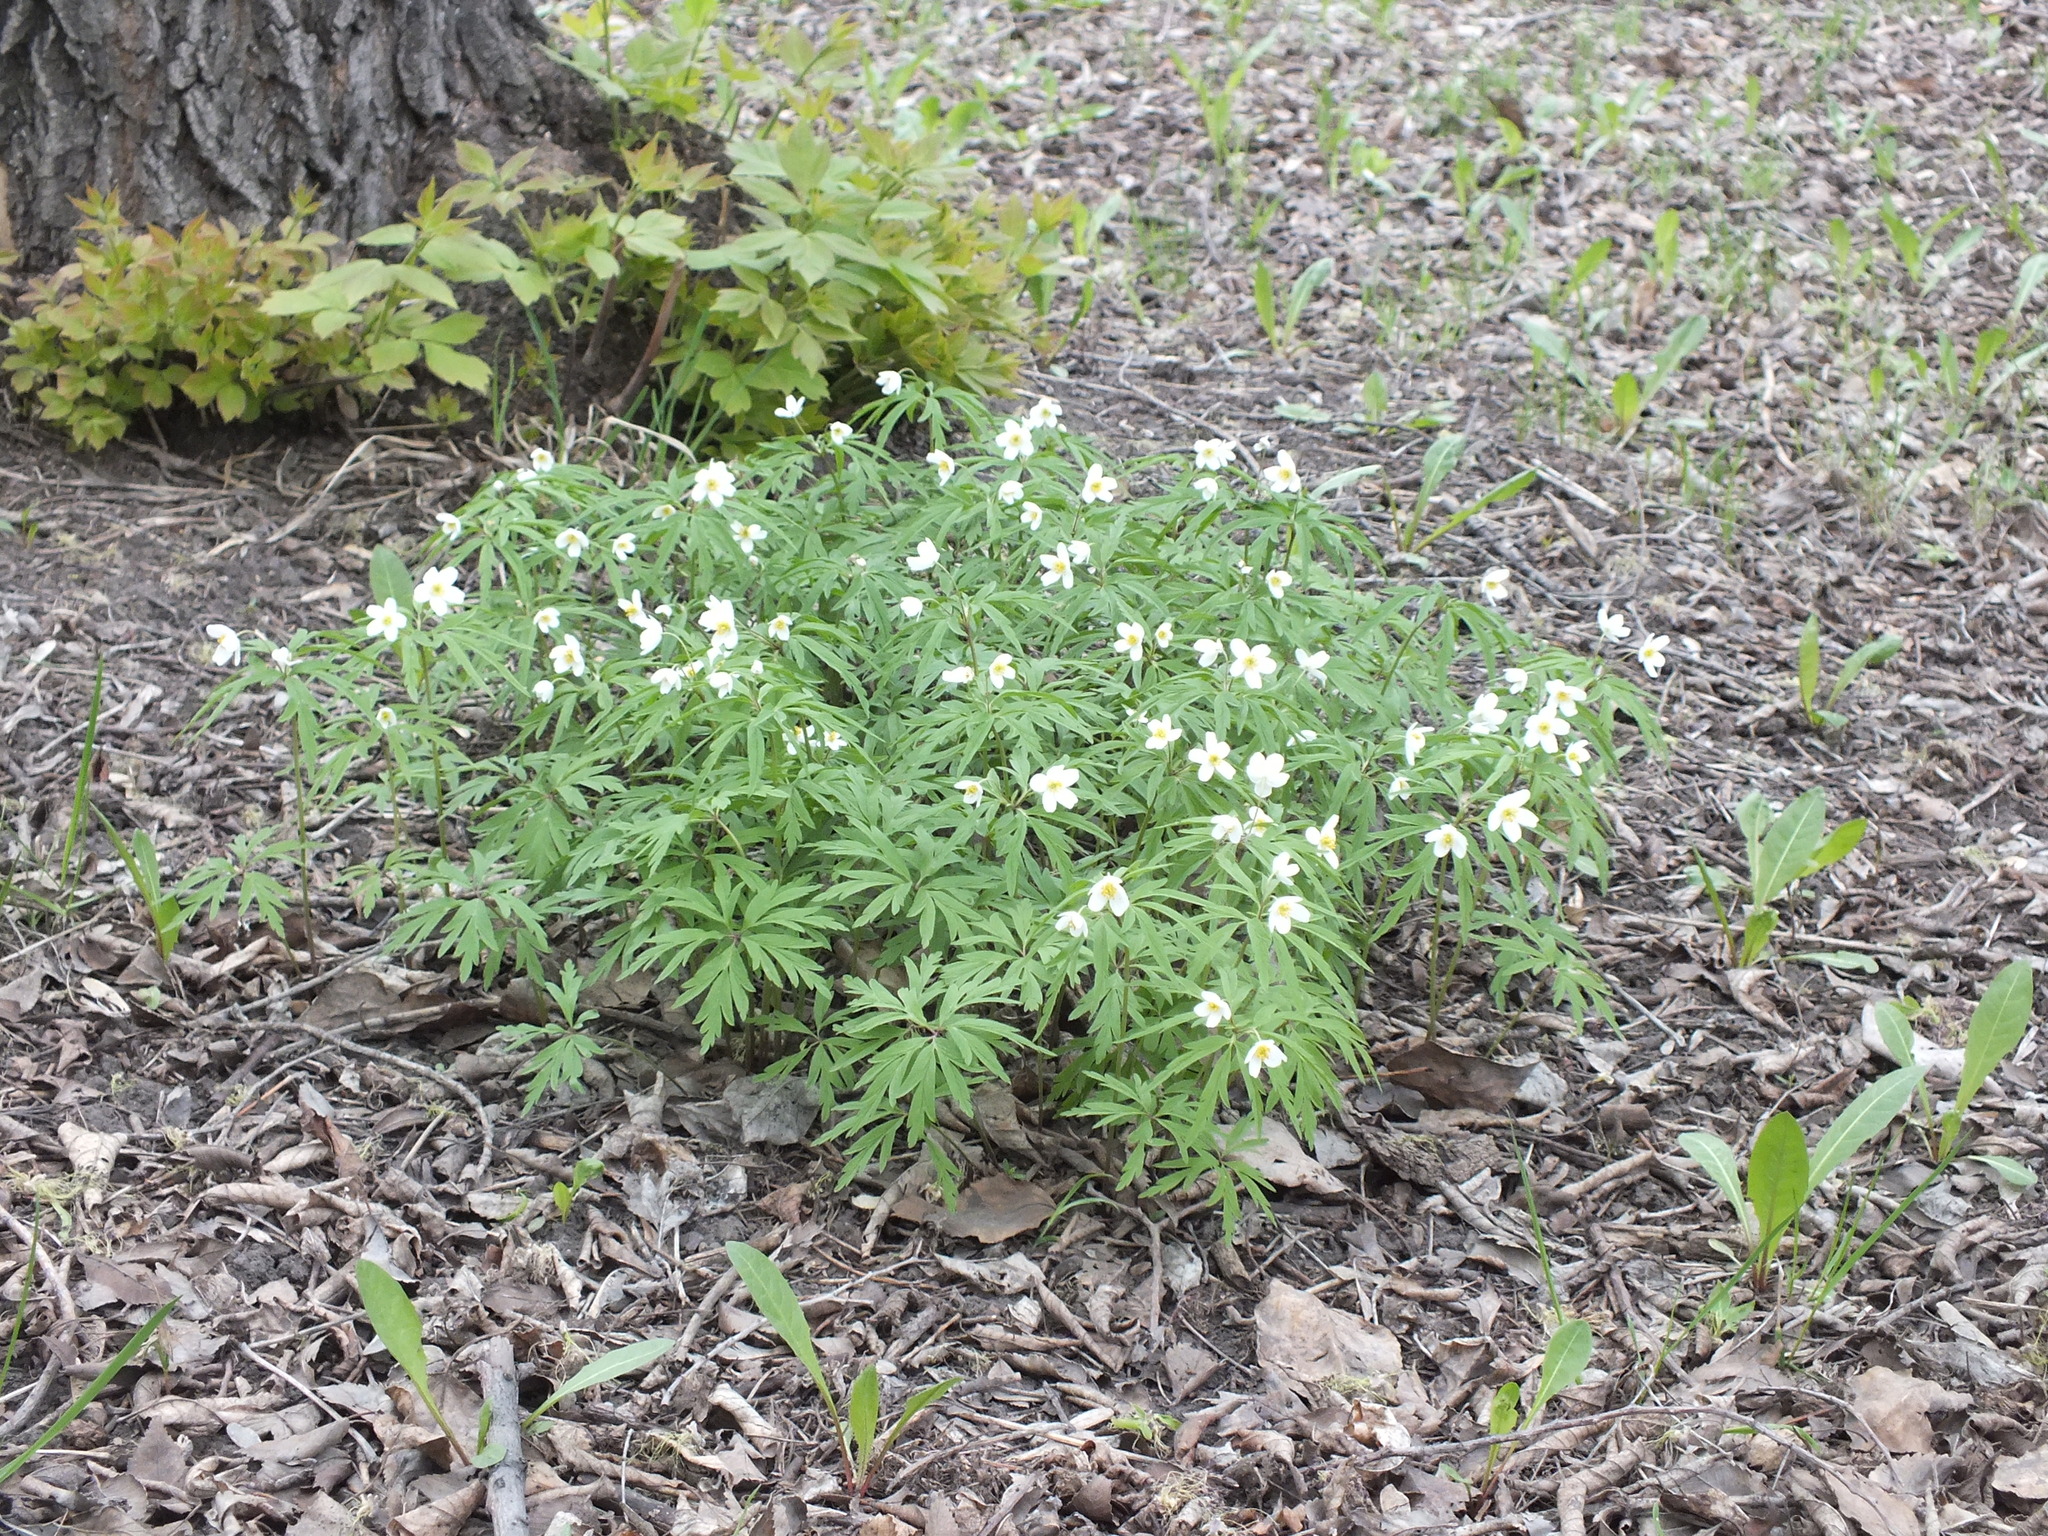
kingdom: Plantae
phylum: Tracheophyta
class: Magnoliopsida
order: Ranunculales
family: Ranunculaceae
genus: Anemone
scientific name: Anemone caerulea
